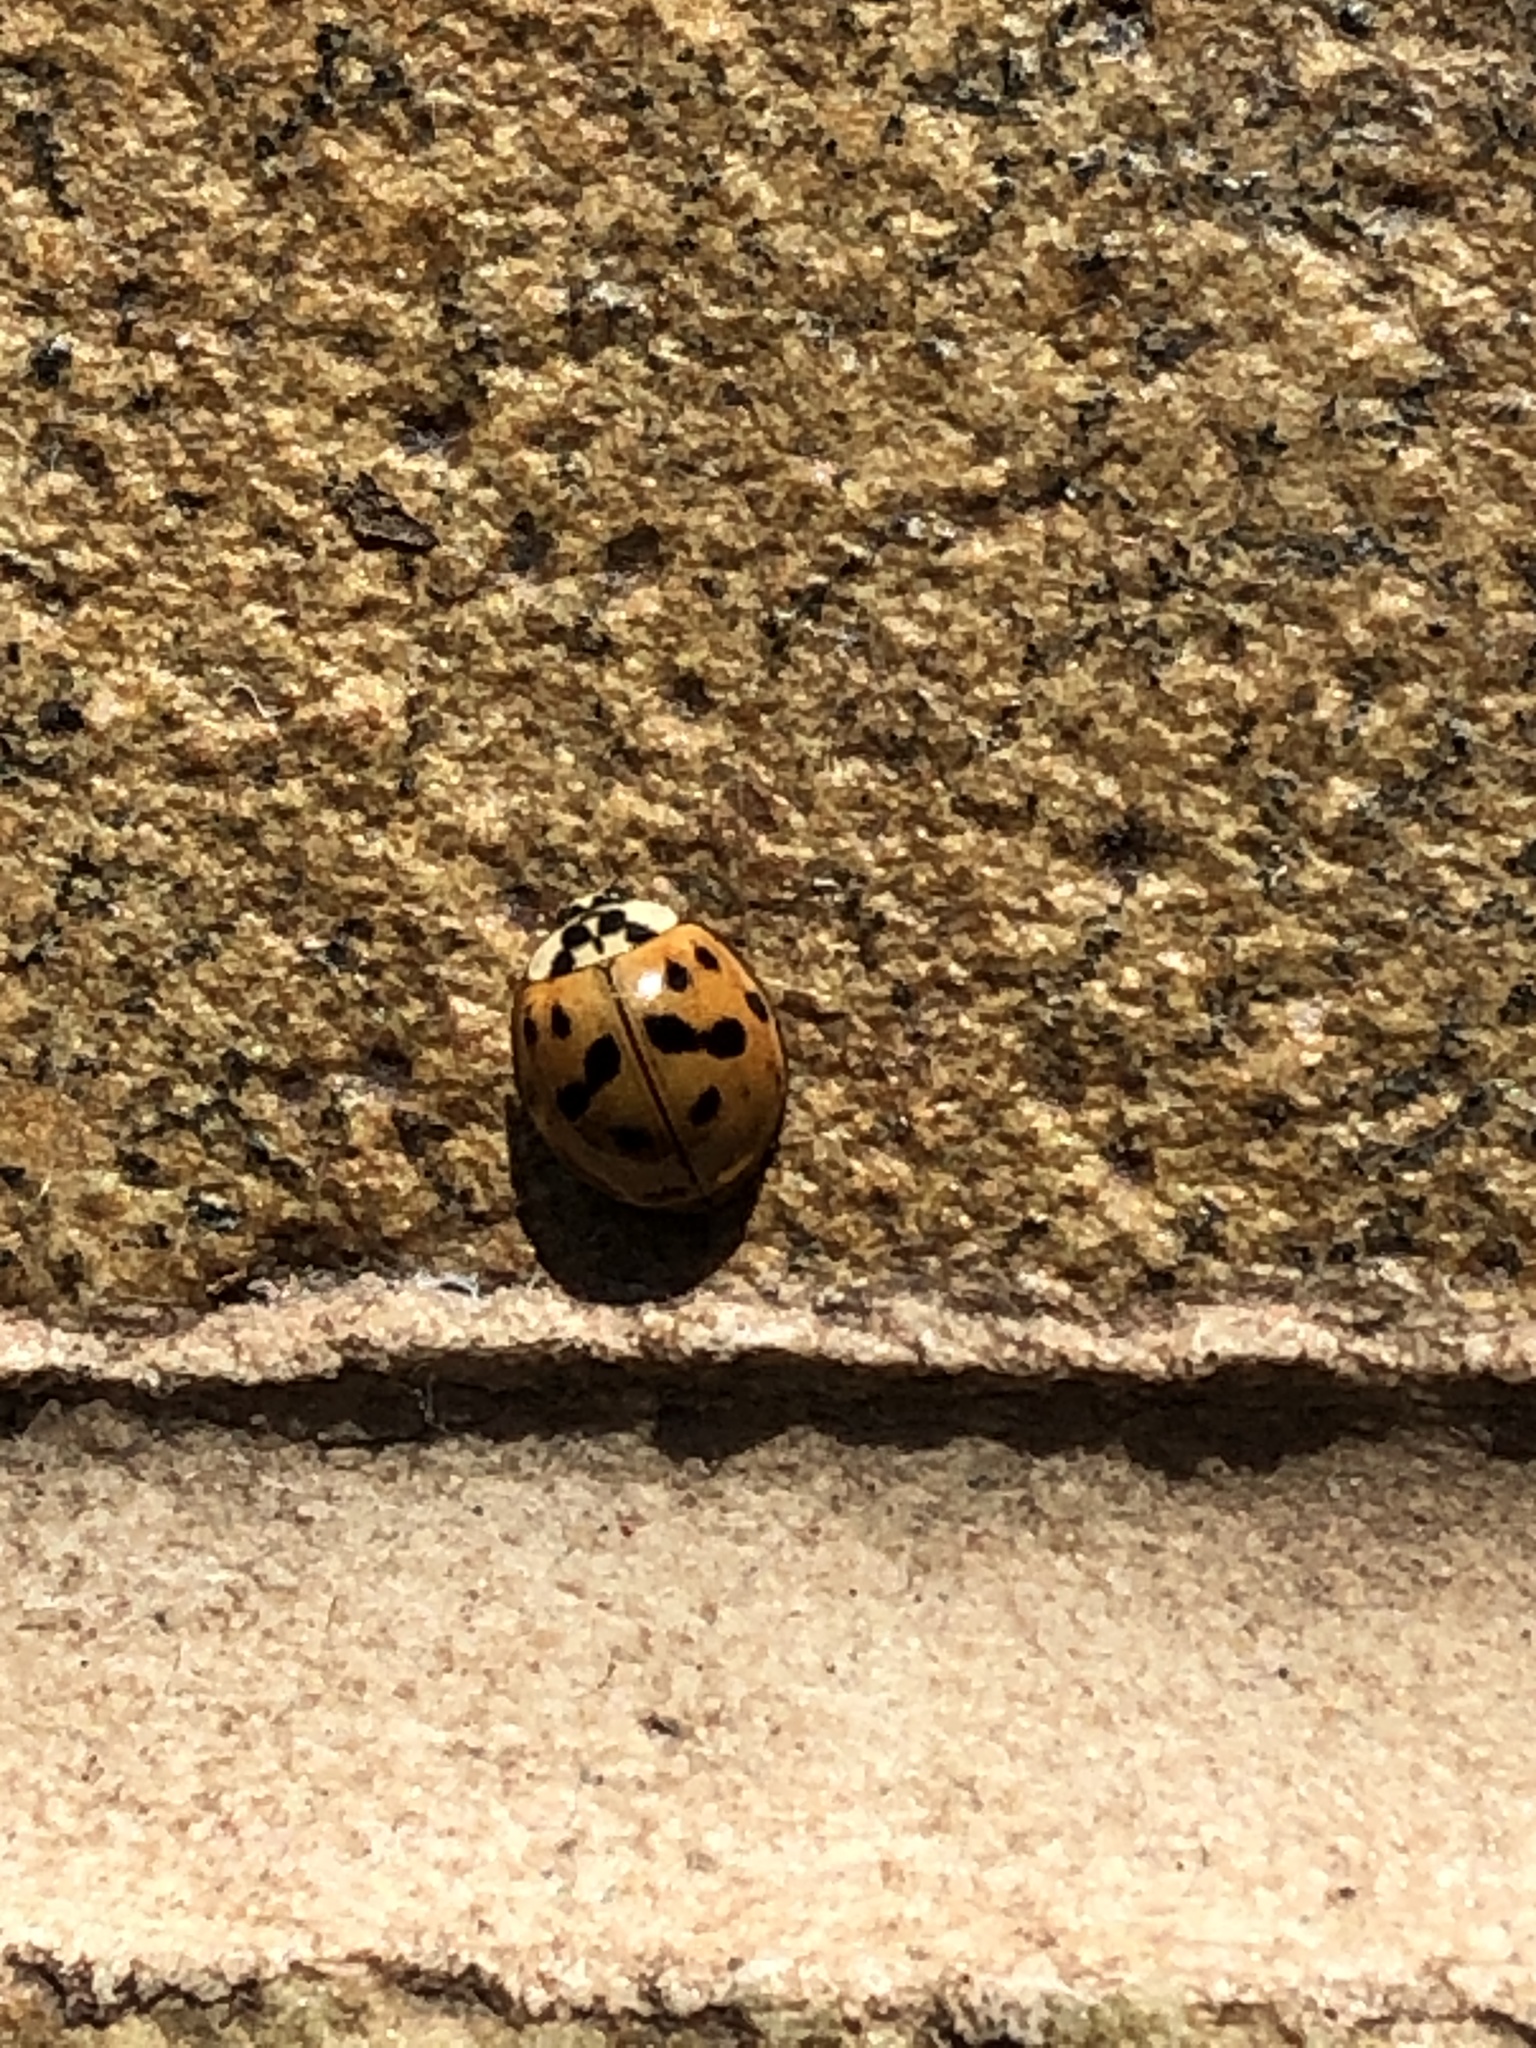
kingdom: Animalia
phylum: Arthropoda
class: Insecta
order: Coleoptera
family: Coccinellidae
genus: Harmonia
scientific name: Harmonia axyridis
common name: Harlequin ladybird
